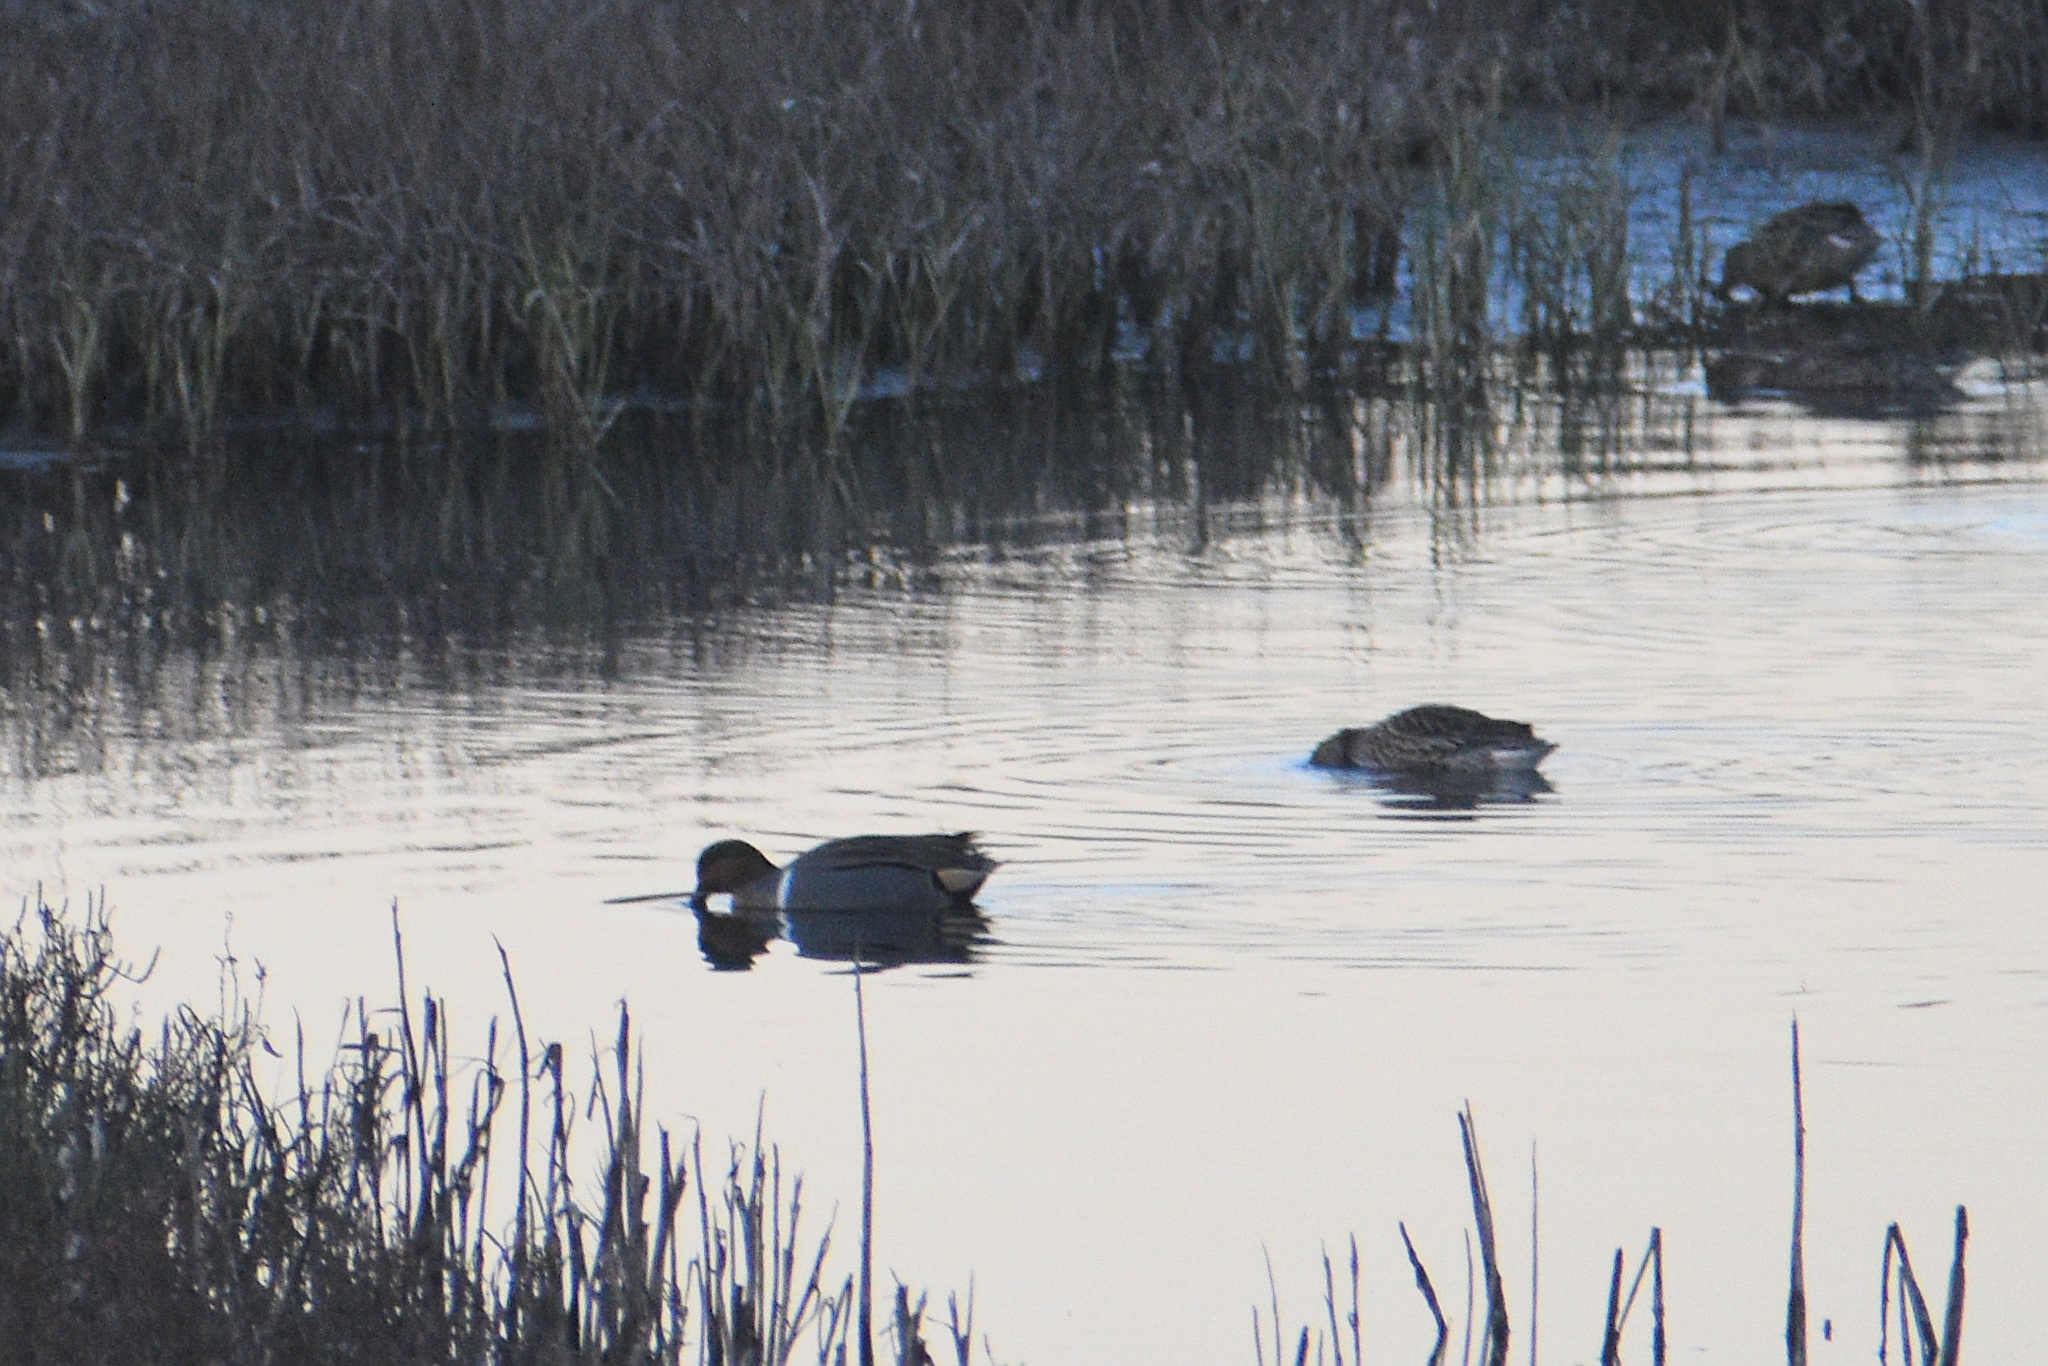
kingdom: Animalia
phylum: Chordata
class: Aves
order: Anseriformes
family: Anatidae
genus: Anas
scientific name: Anas crecca
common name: Eurasian teal
